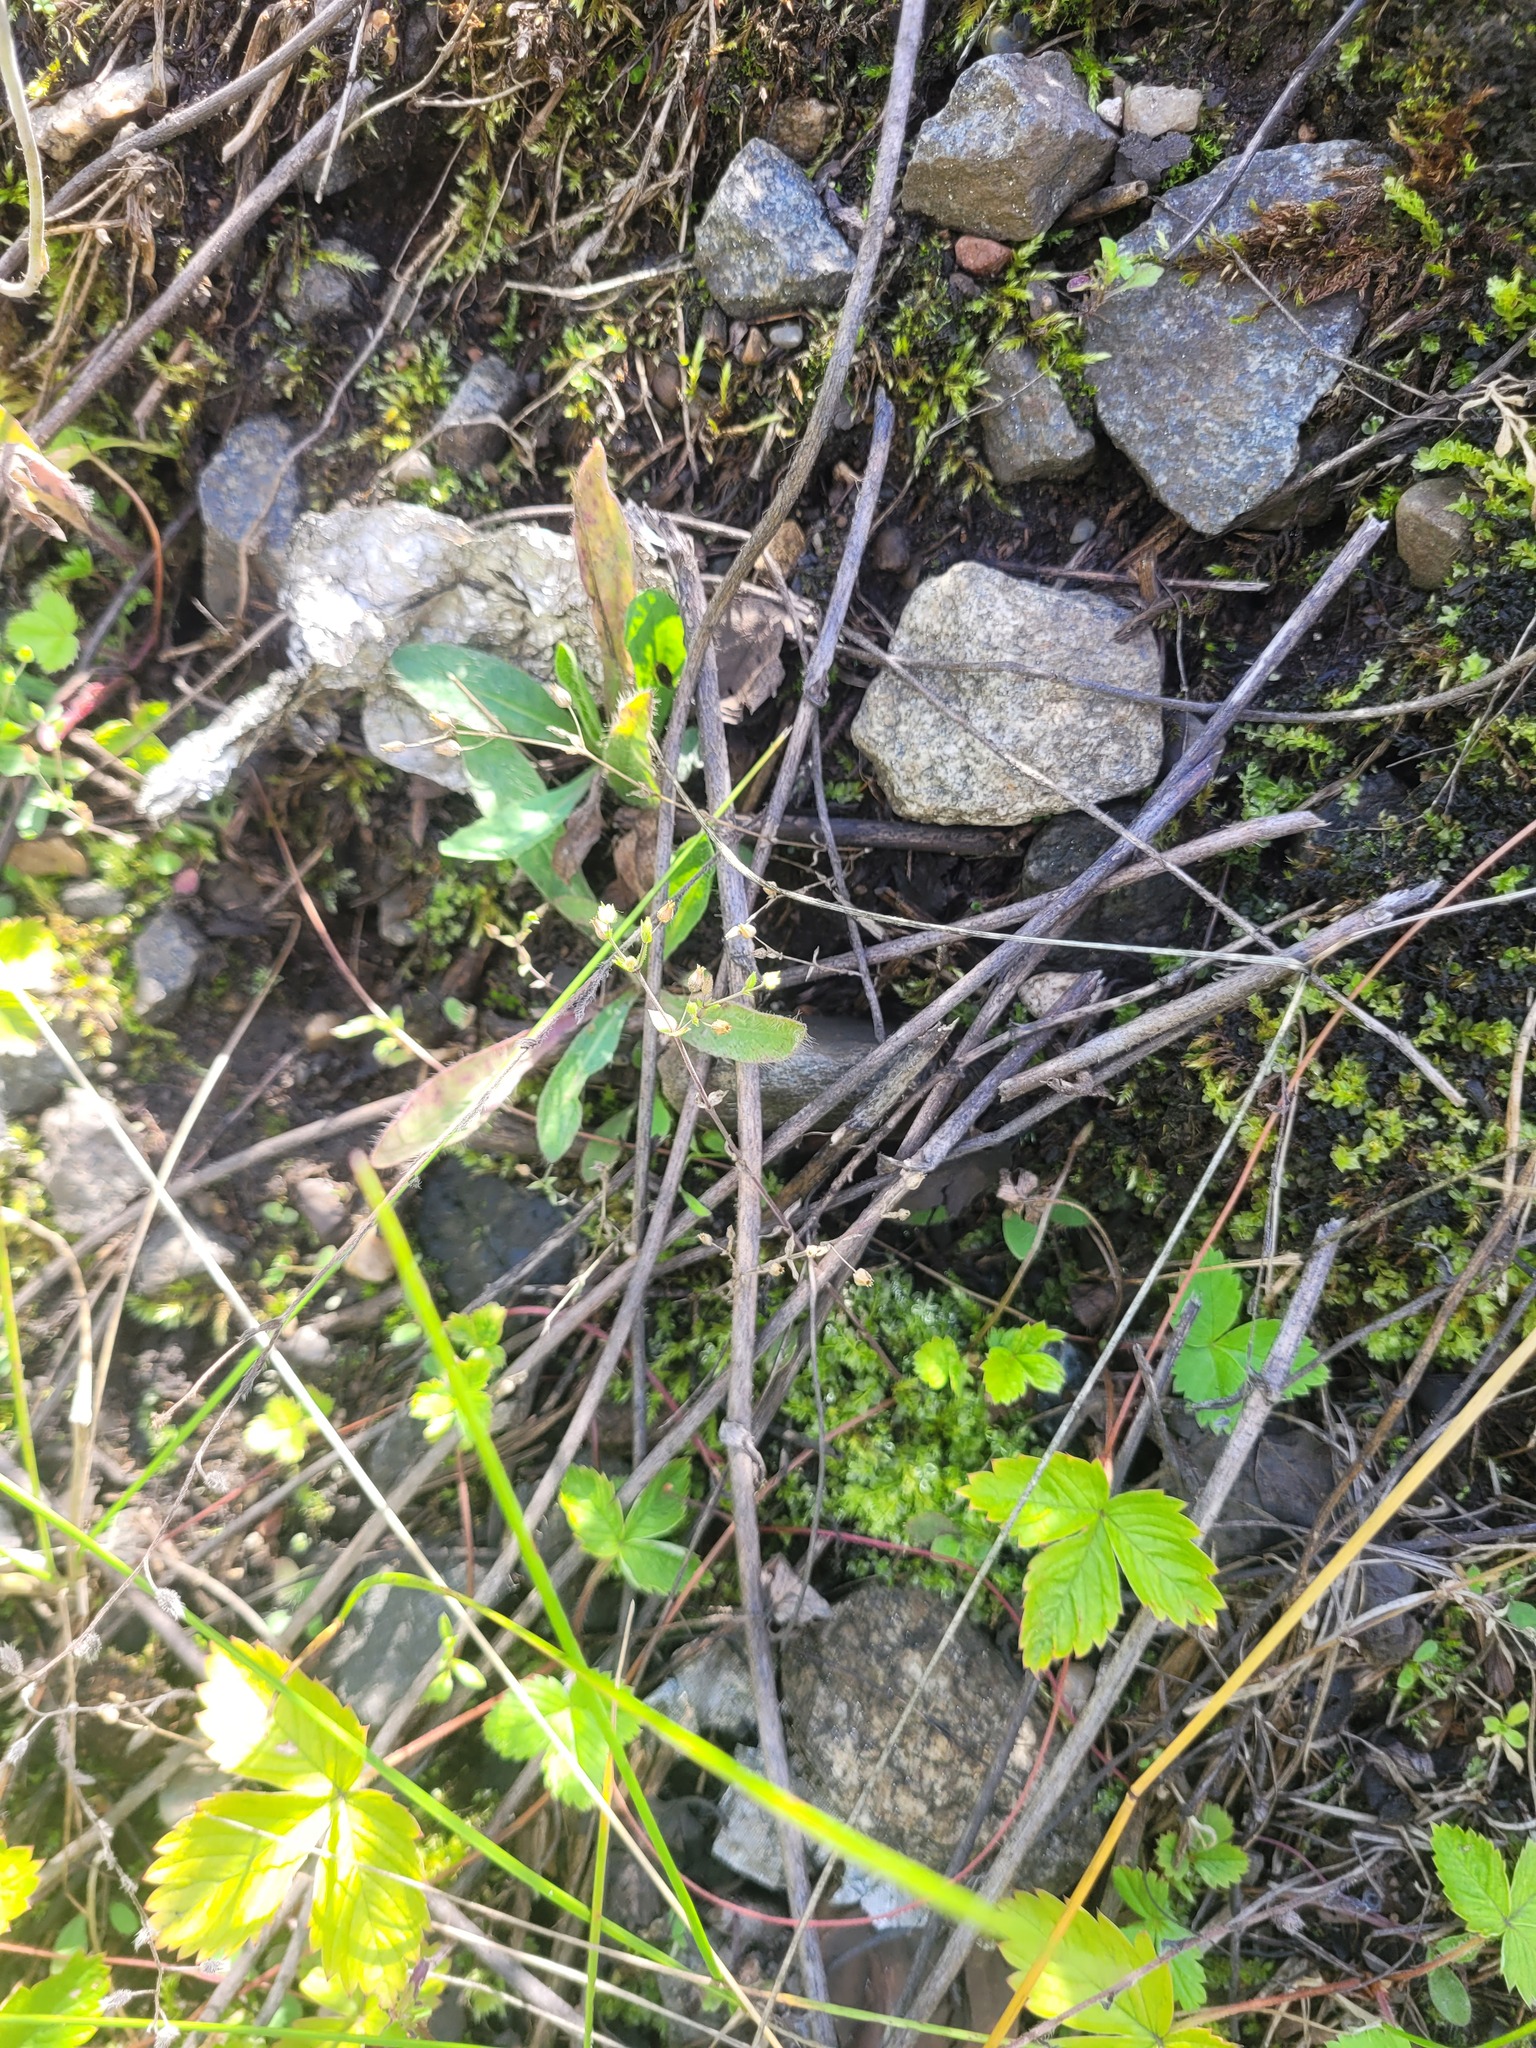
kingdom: Plantae
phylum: Tracheophyta
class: Magnoliopsida
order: Caryophyllales
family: Caryophyllaceae
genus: Arenaria
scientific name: Arenaria serpyllifolia
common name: Thyme-leaved sandwort
